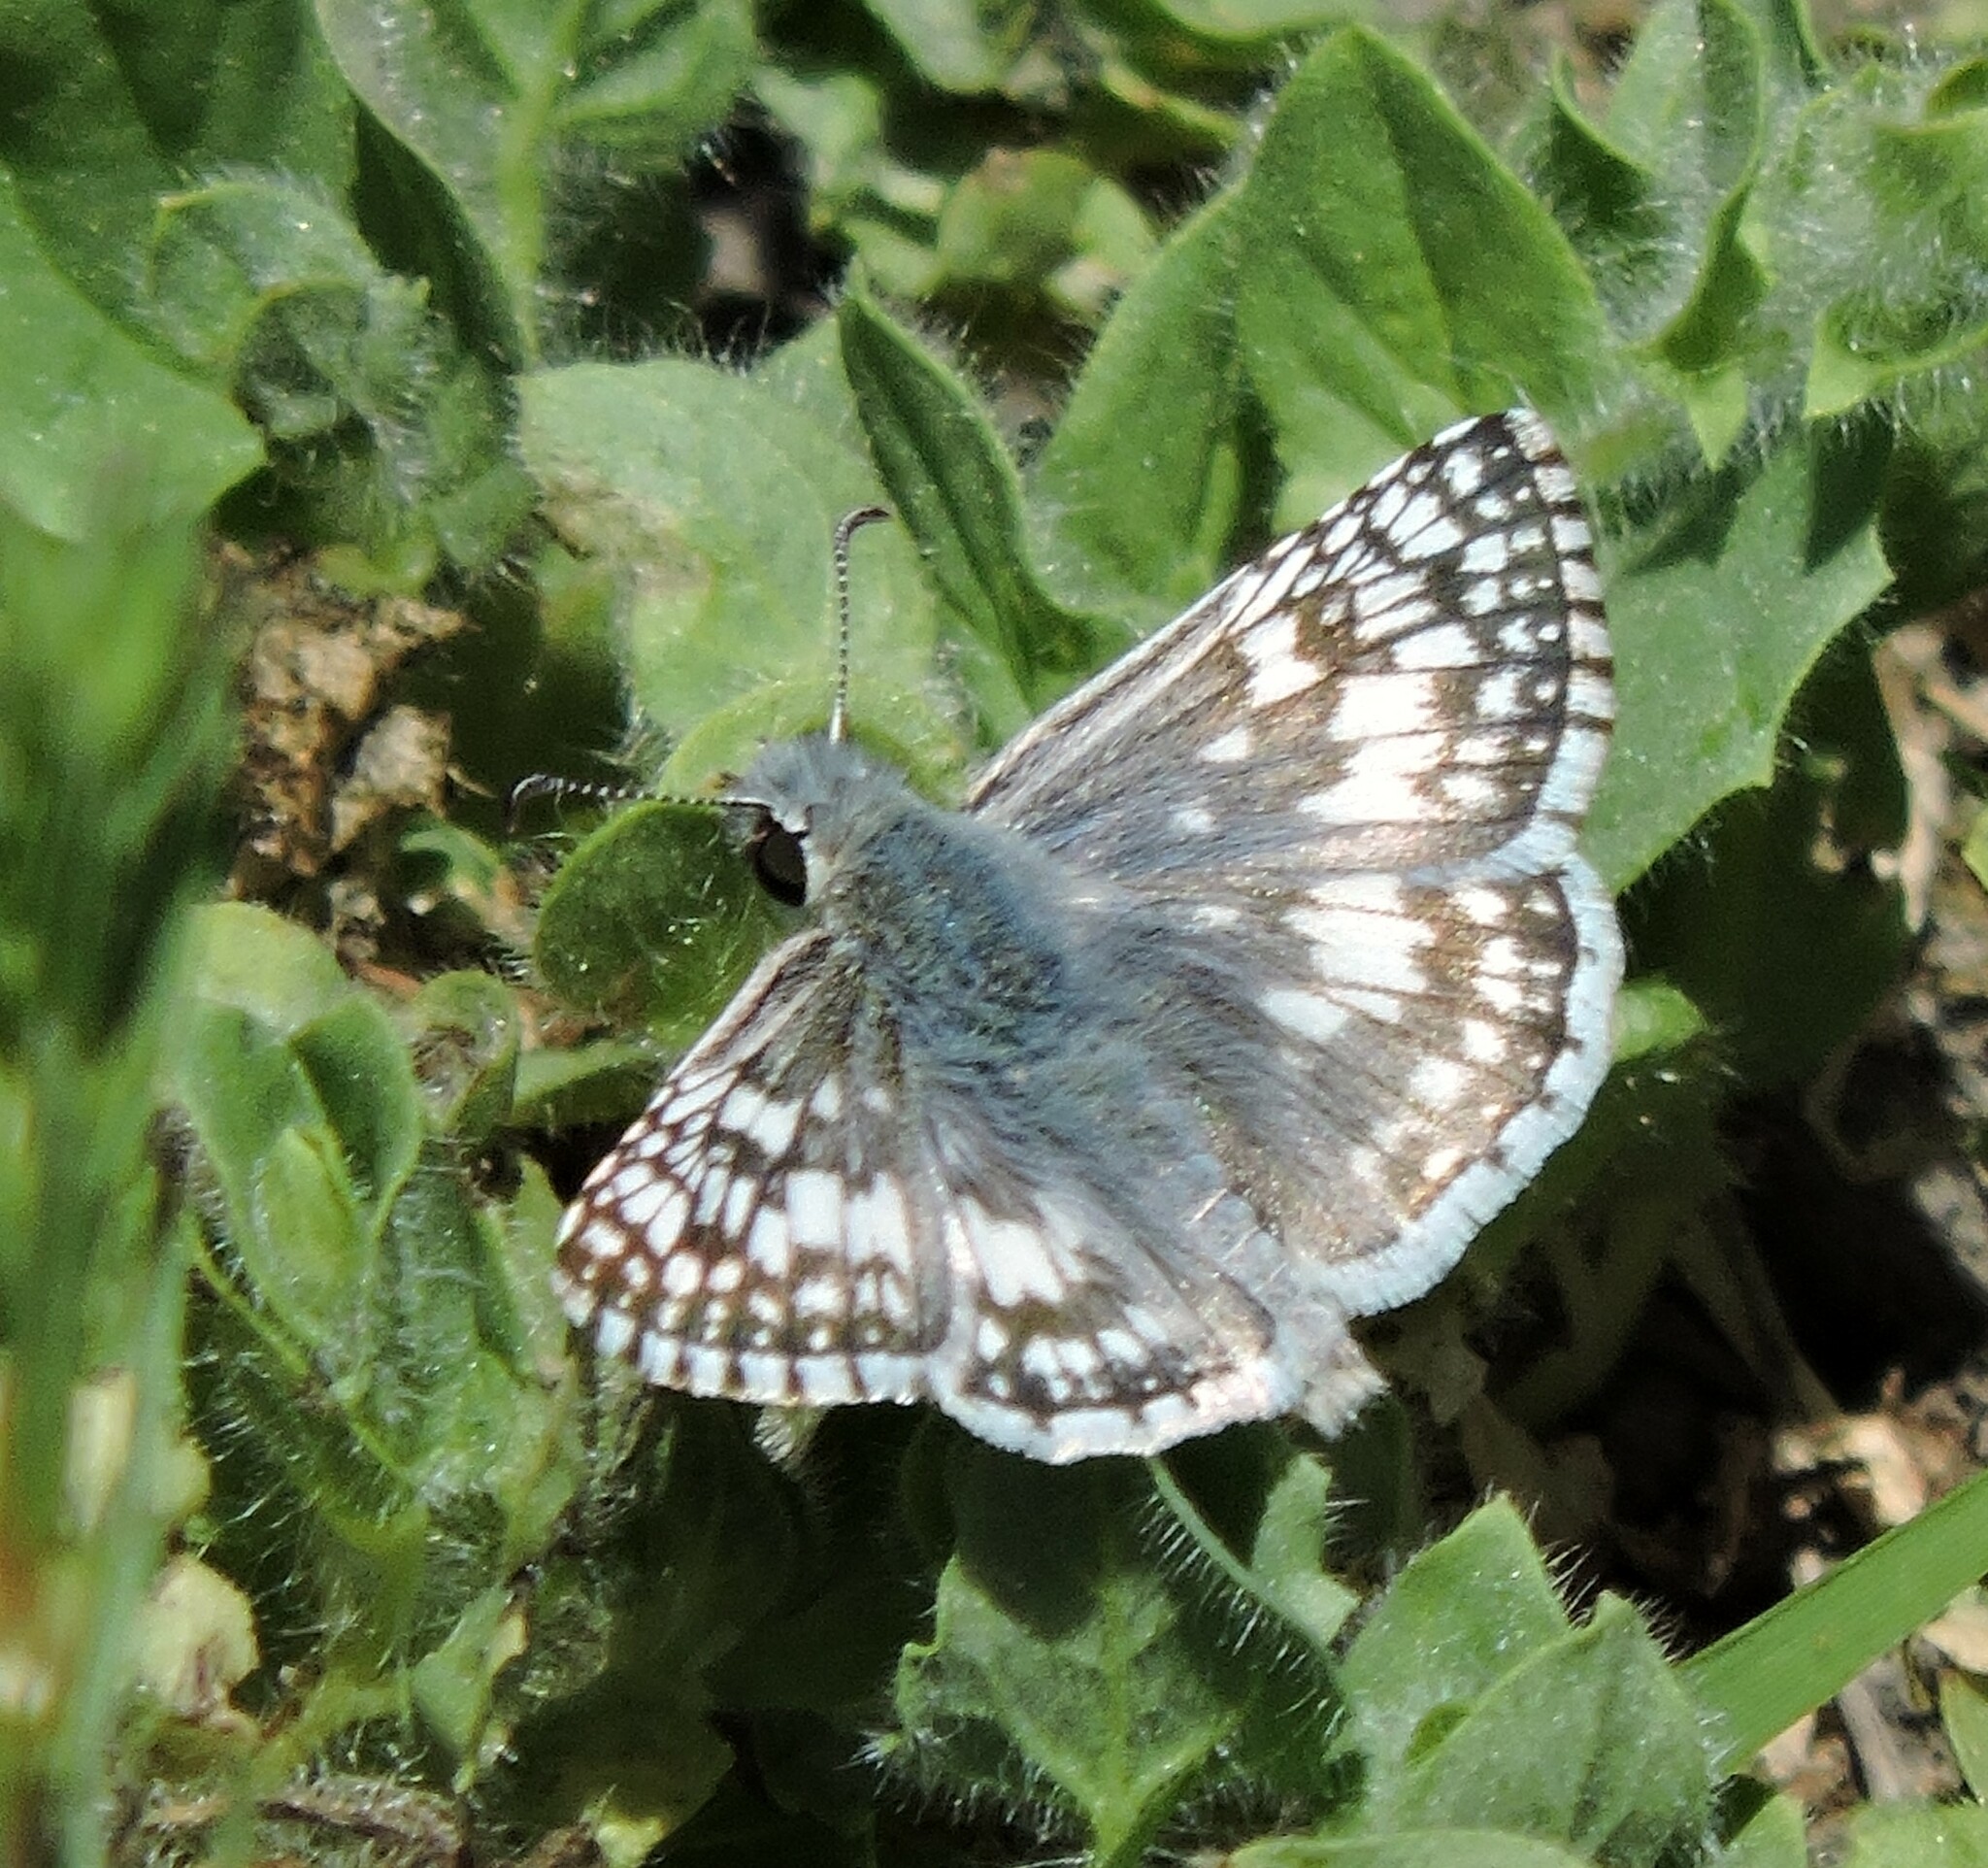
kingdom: Animalia
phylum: Arthropoda
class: Insecta
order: Lepidoptera
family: Hesperiidae
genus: Burnsius
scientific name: Burnsius communis
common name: Common checkered-skipper
